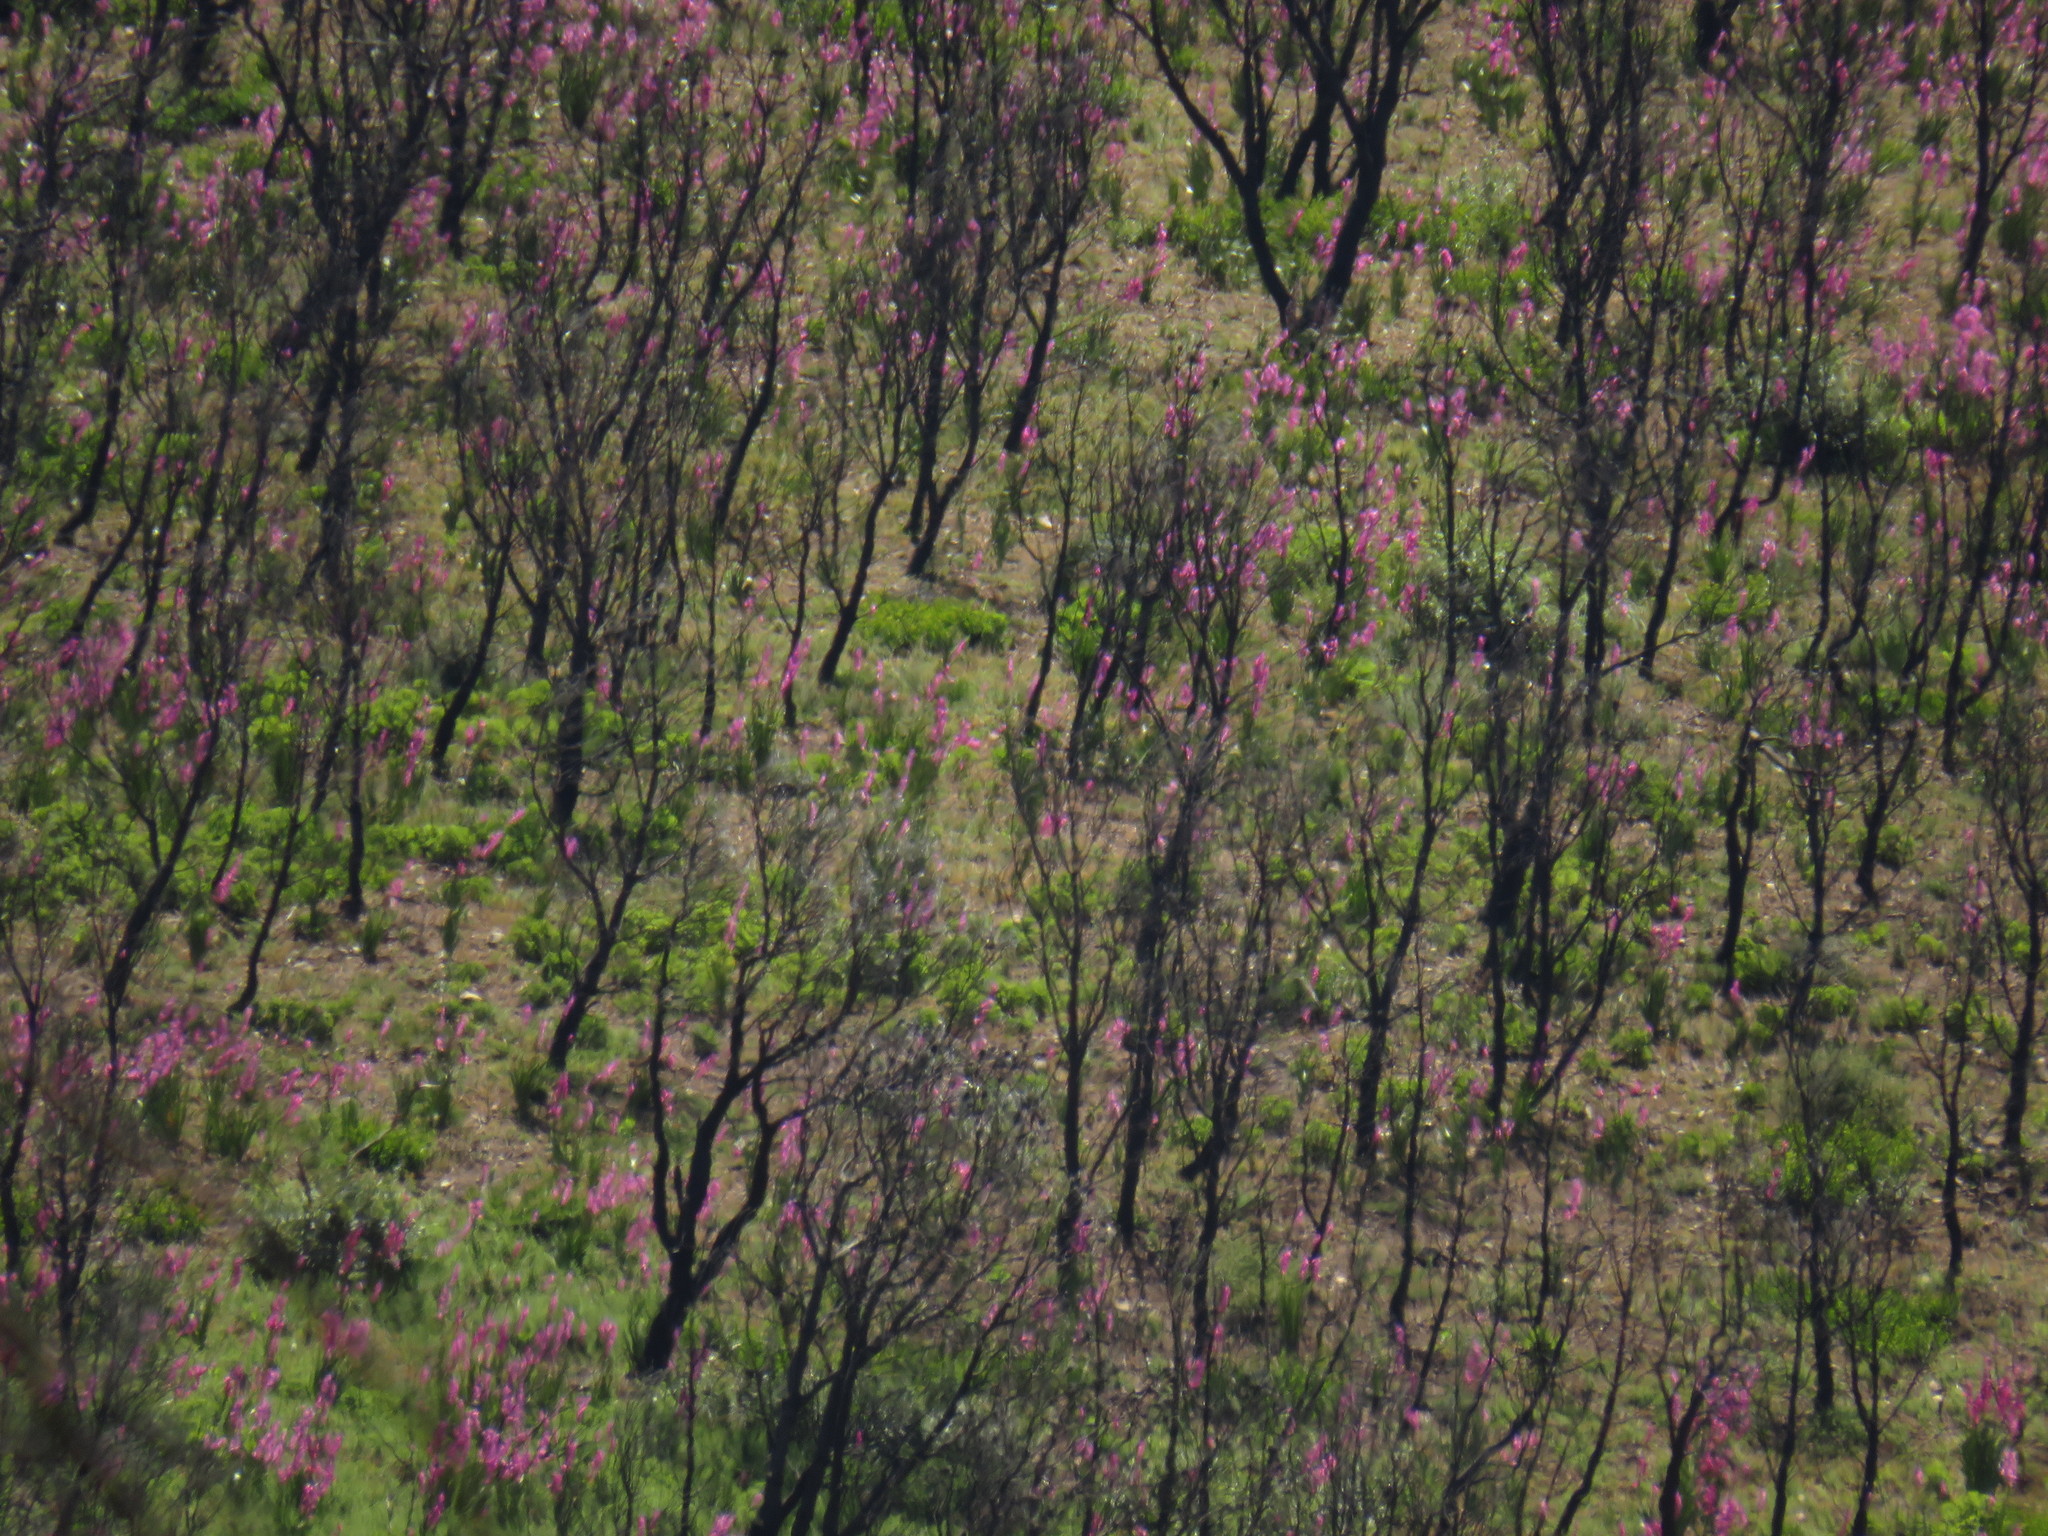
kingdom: Plantae
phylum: Tracheophyta
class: Liliopsida
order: Asparagales
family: Iridaceae
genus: Watsonia
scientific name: Watsonia borbonica
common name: Bugle-lily
